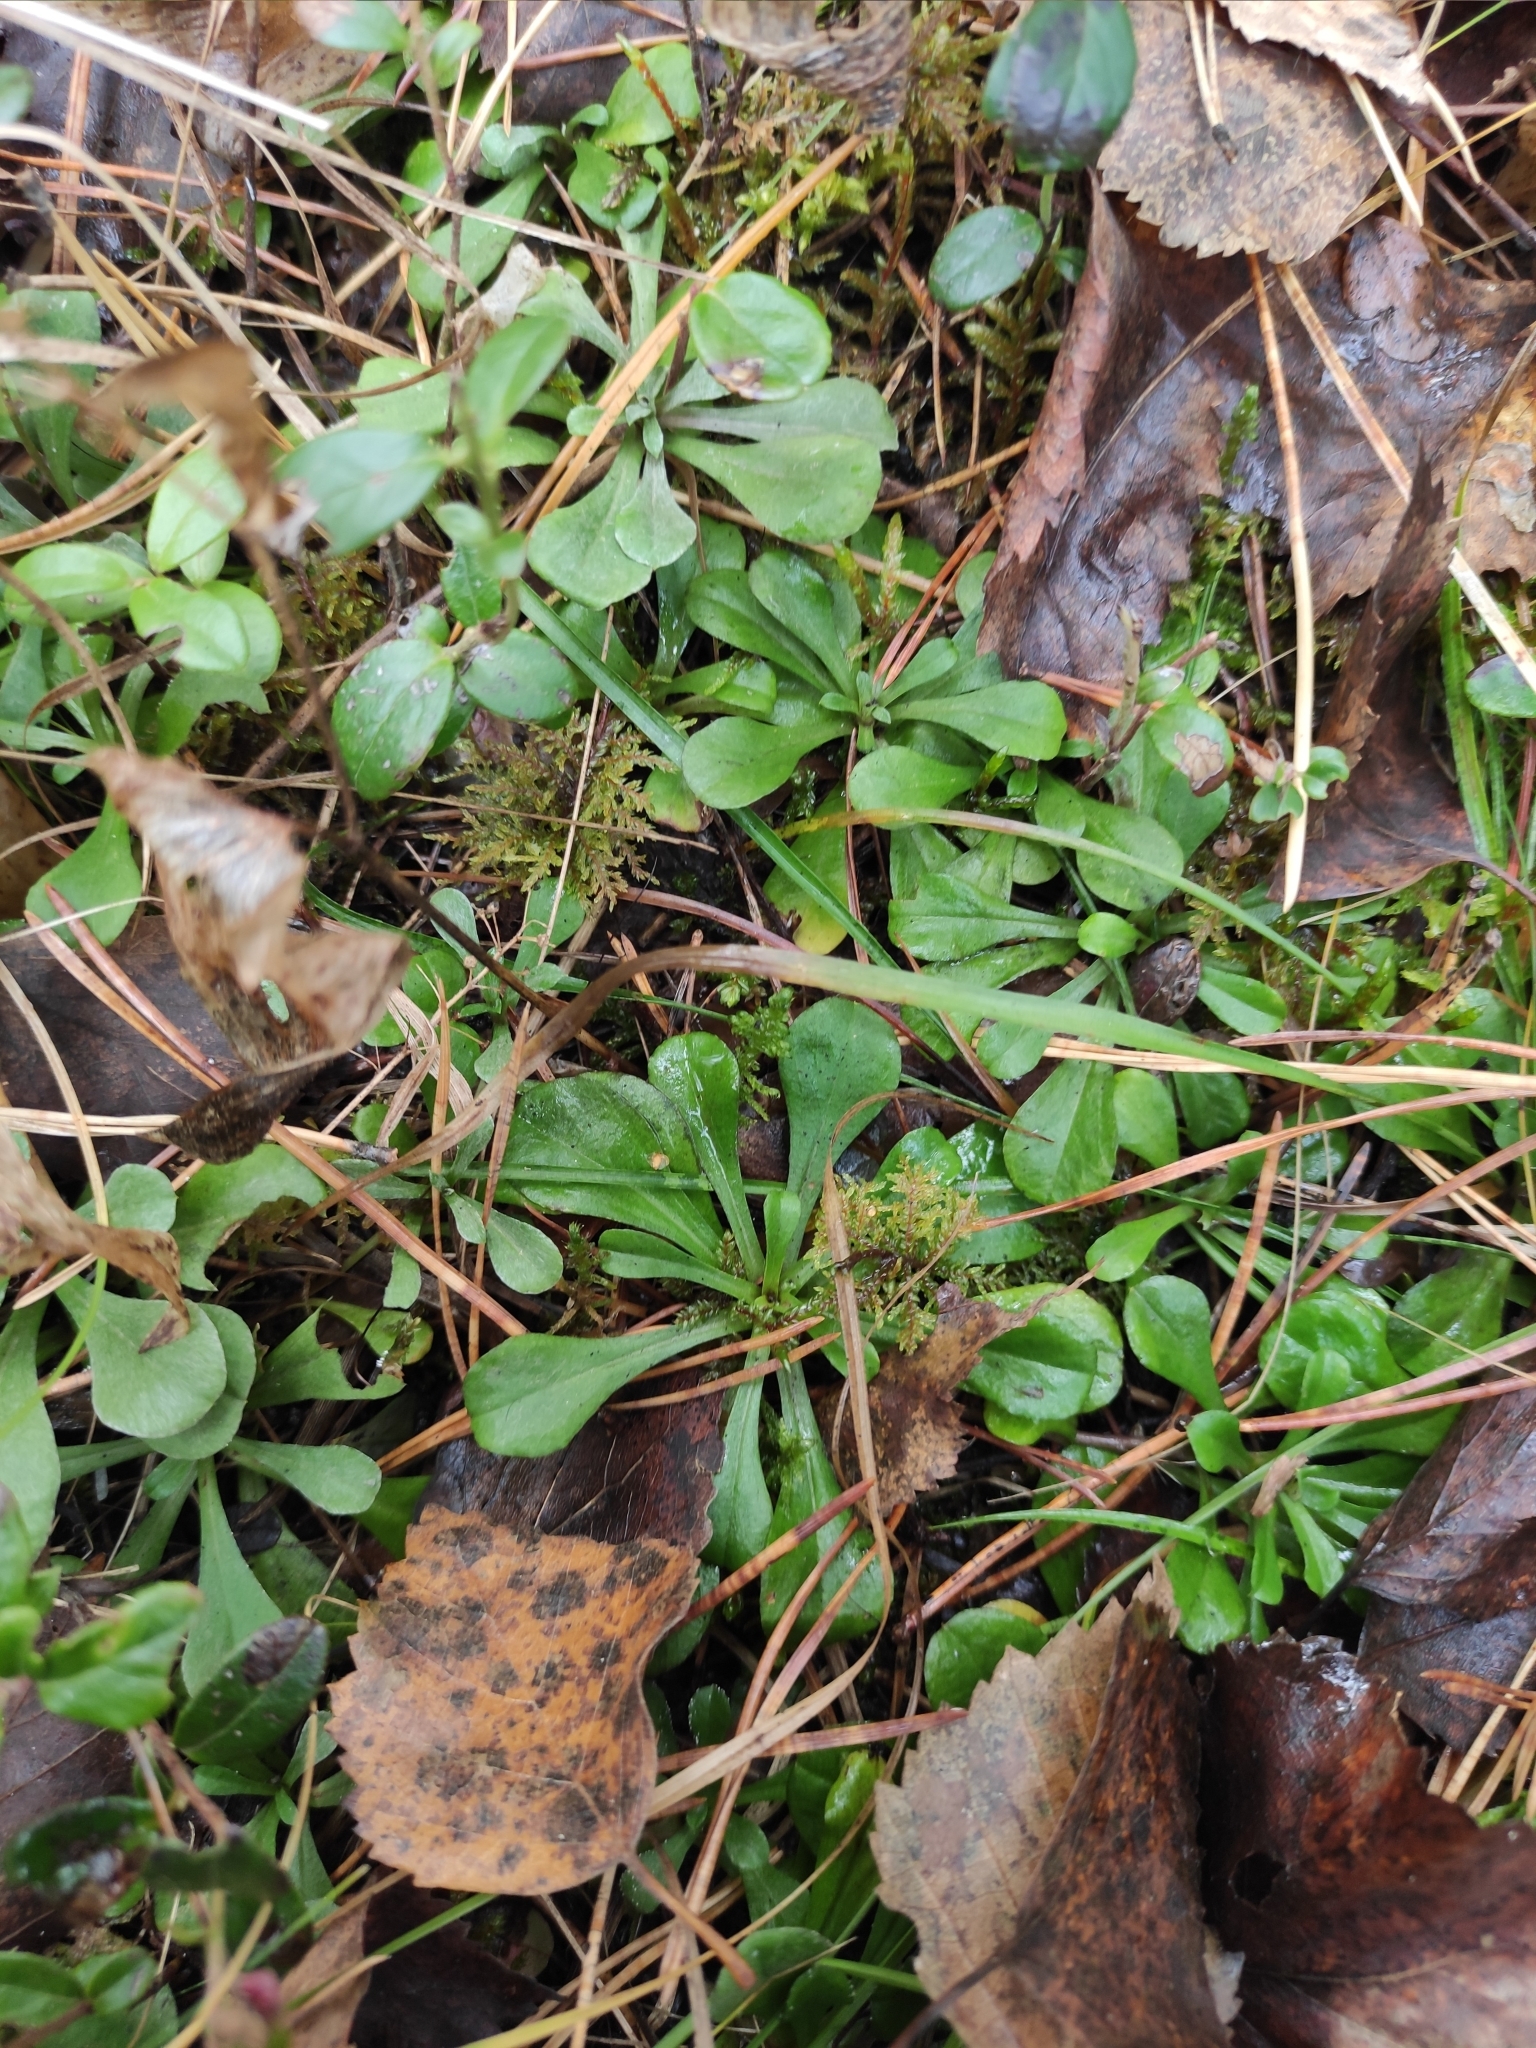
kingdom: Plantae
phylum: Tracheophyta
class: Magnoliopsida
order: Asterales
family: Asteraceae
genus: Antennaria
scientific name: Antennaria dioica
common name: Mountain everlasting
